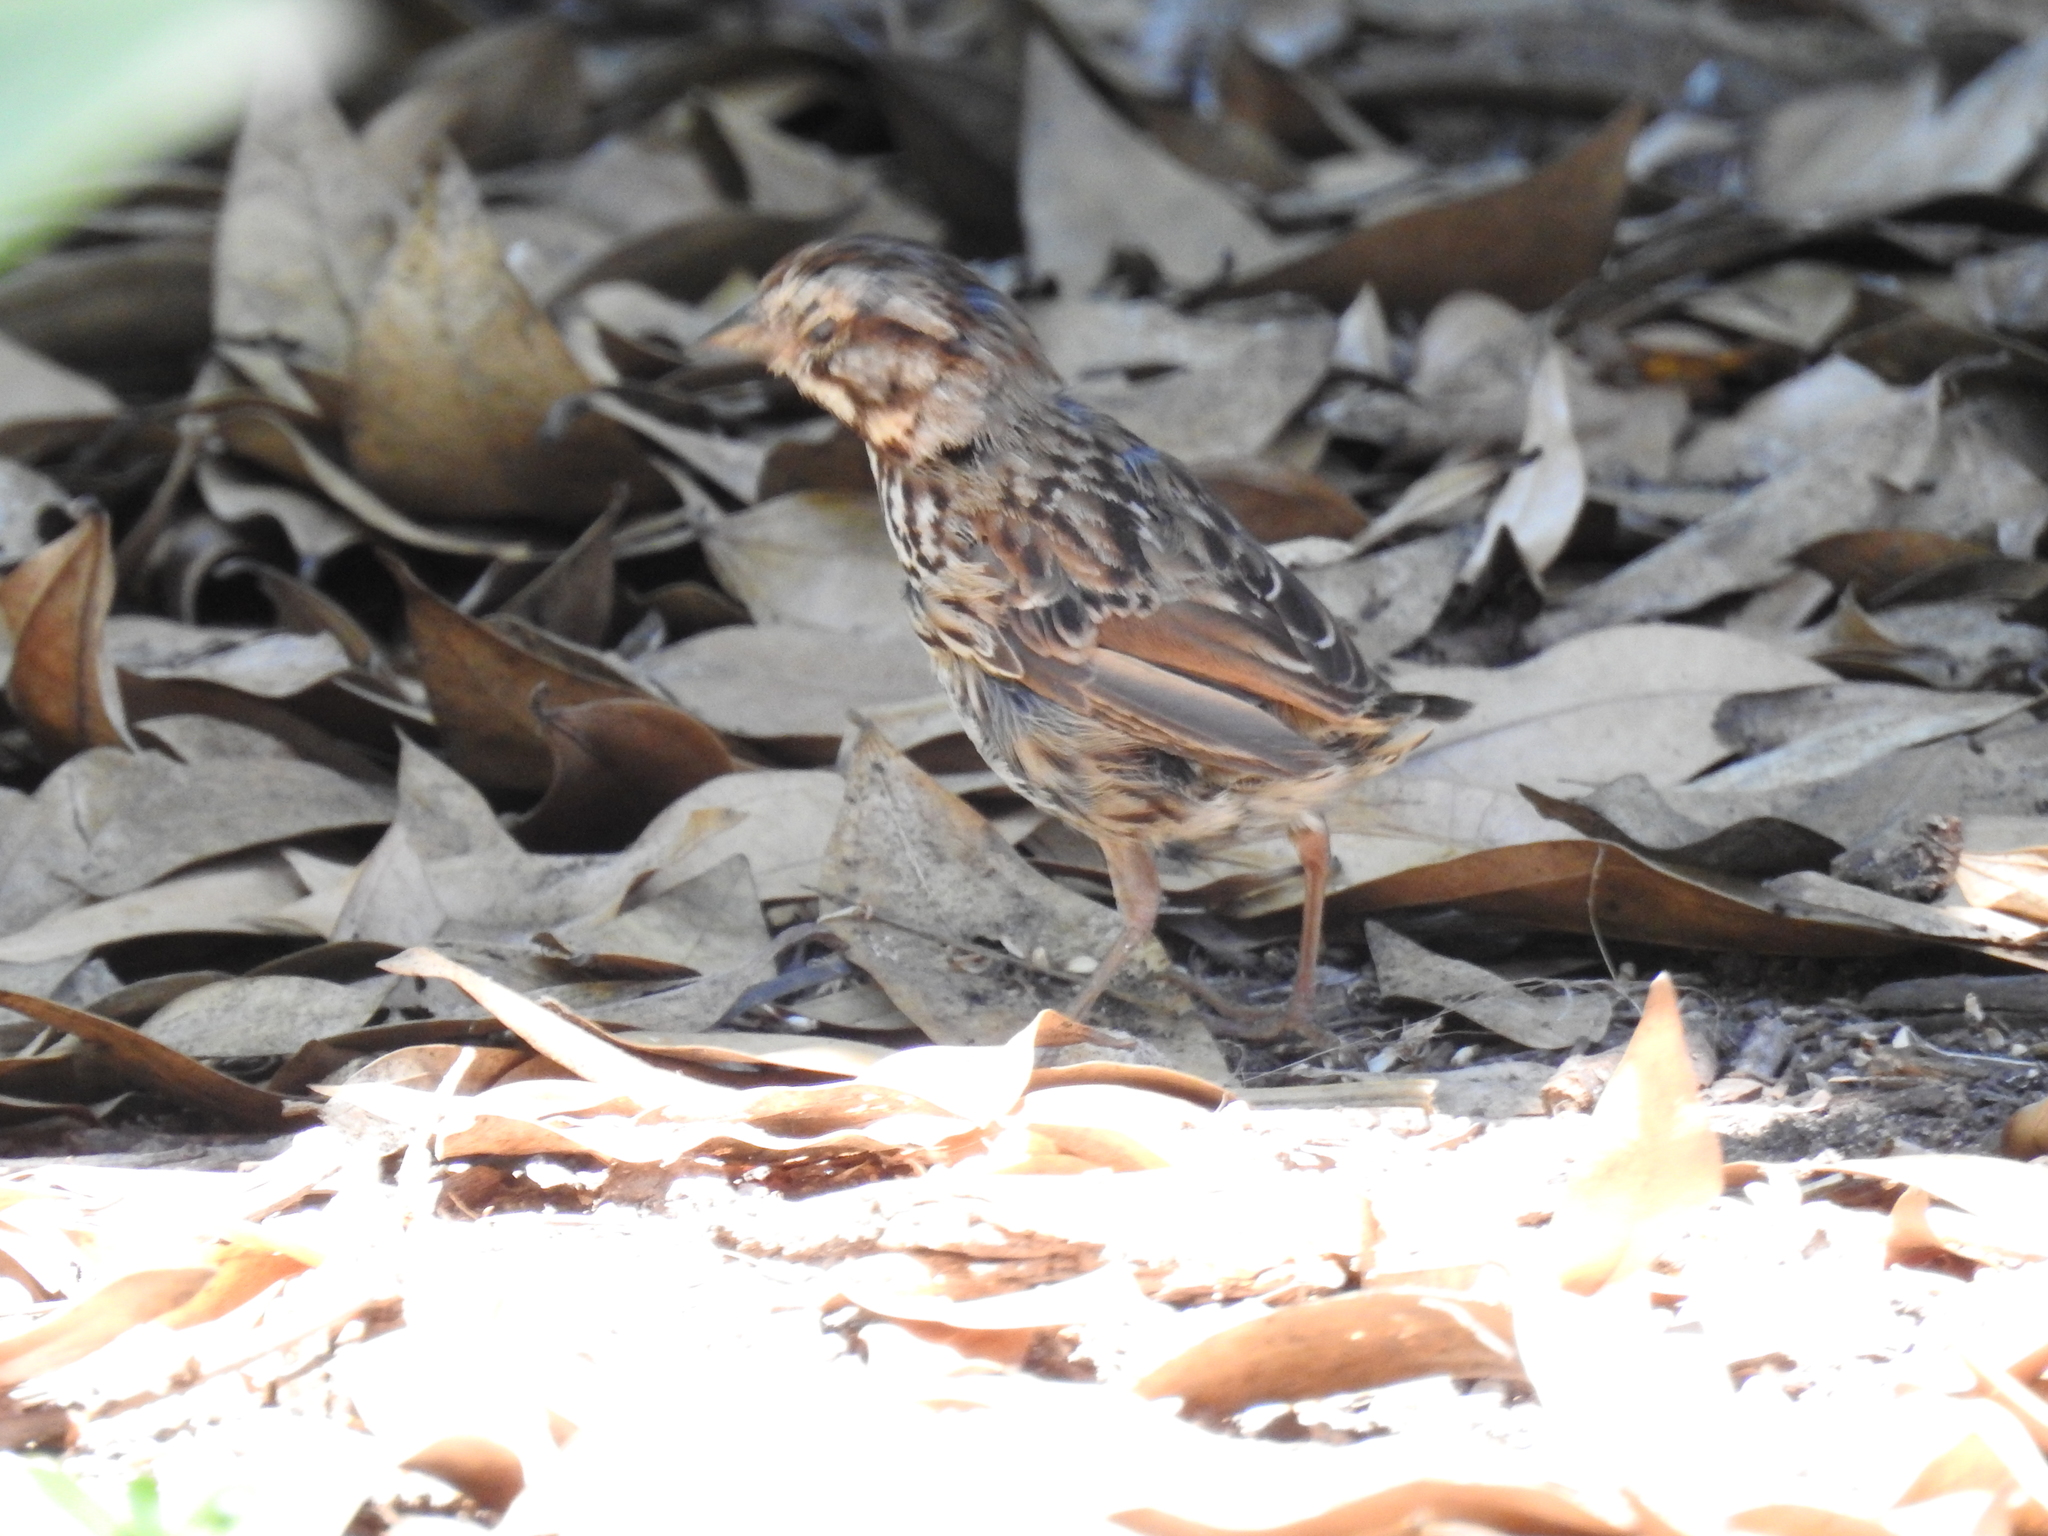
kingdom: Animalia
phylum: Chordata
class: Aves
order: Passeriformes
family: Passerellidae
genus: Melospiza
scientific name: Melospiza melodia
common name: Song sparrow
